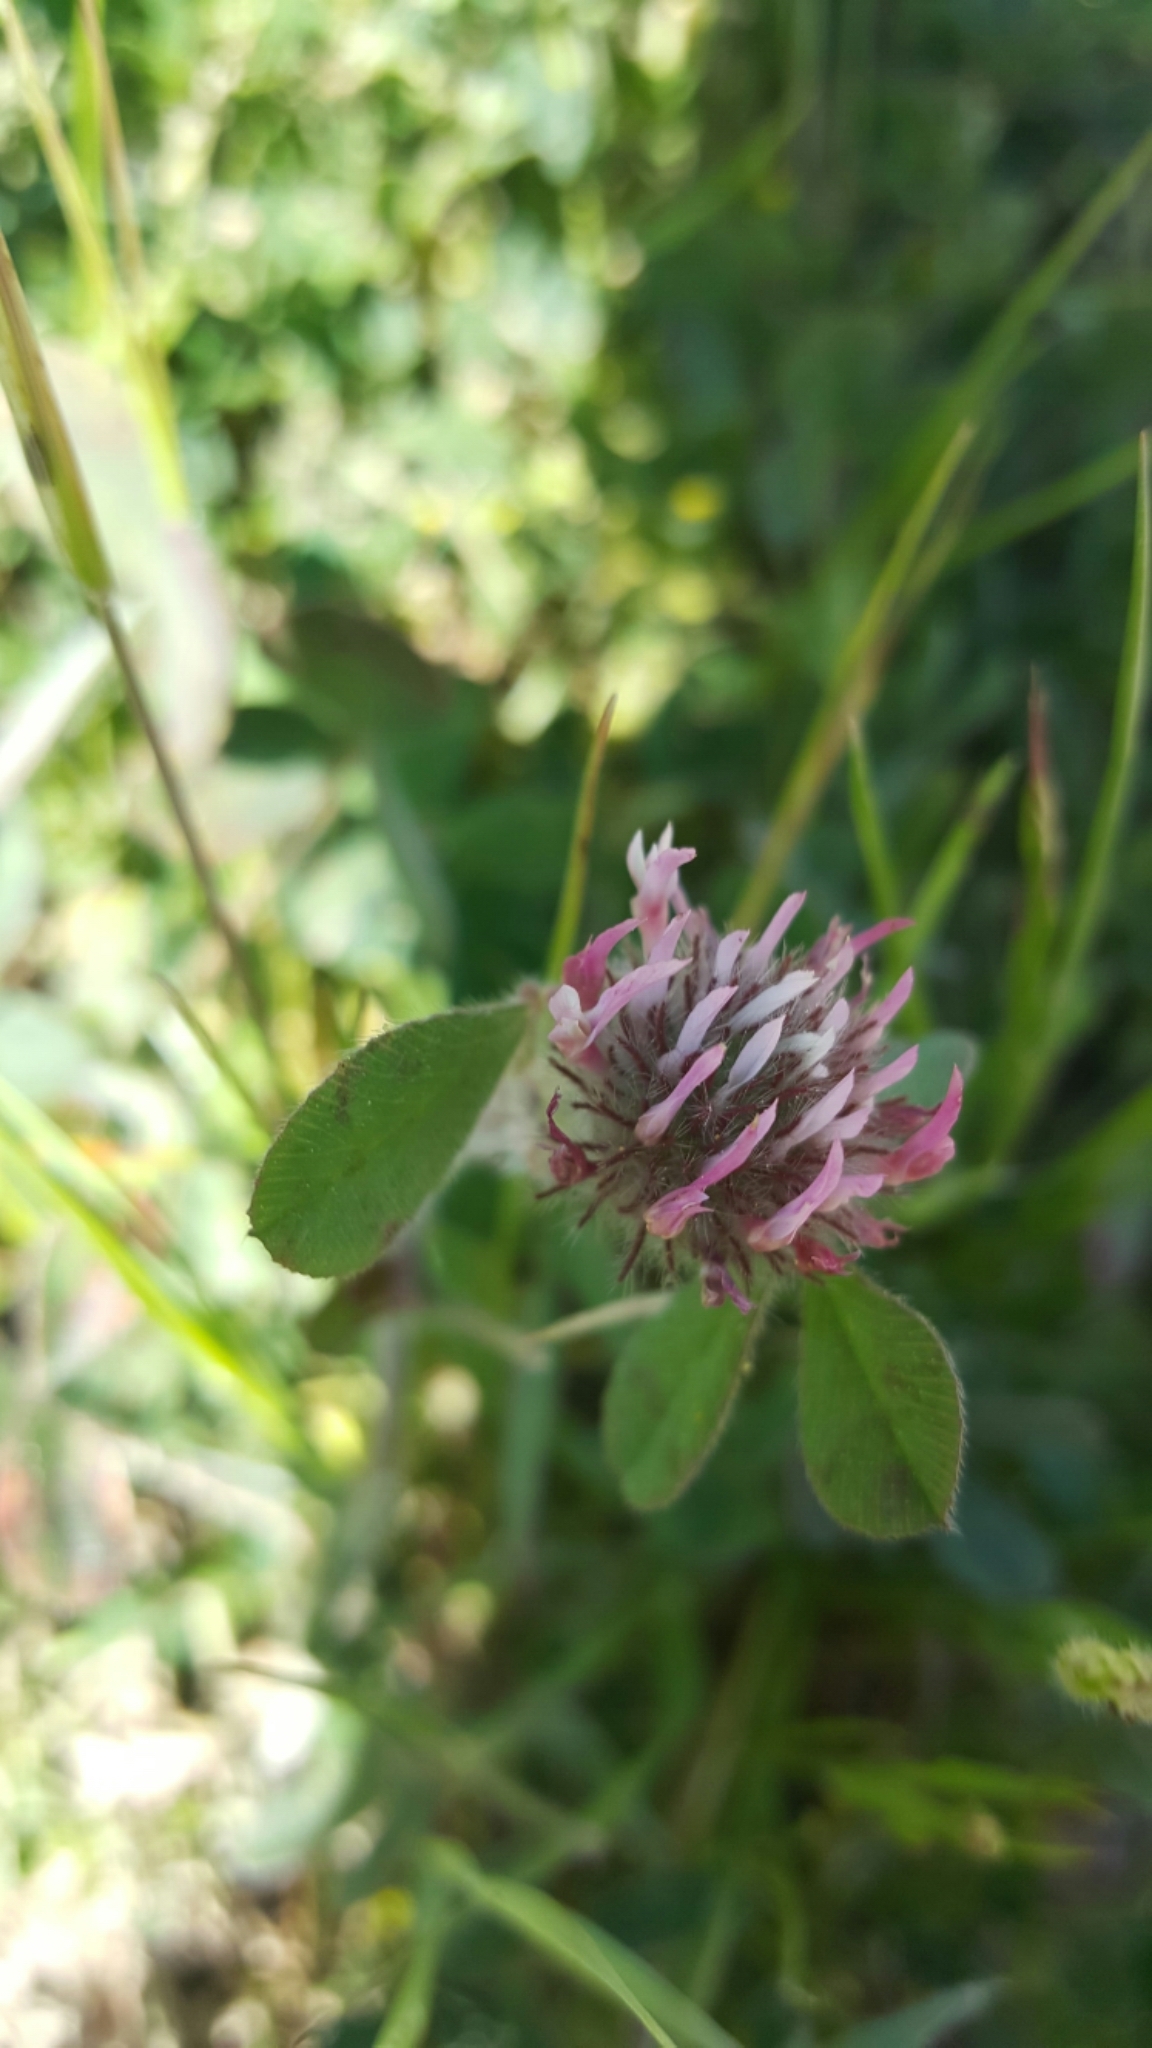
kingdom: Plantae
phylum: Tracheophyta
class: Magnoliopsida
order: Fabales
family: Fabaceae
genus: Trifolium
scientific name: Trifolium hirtum
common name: Rose clover
